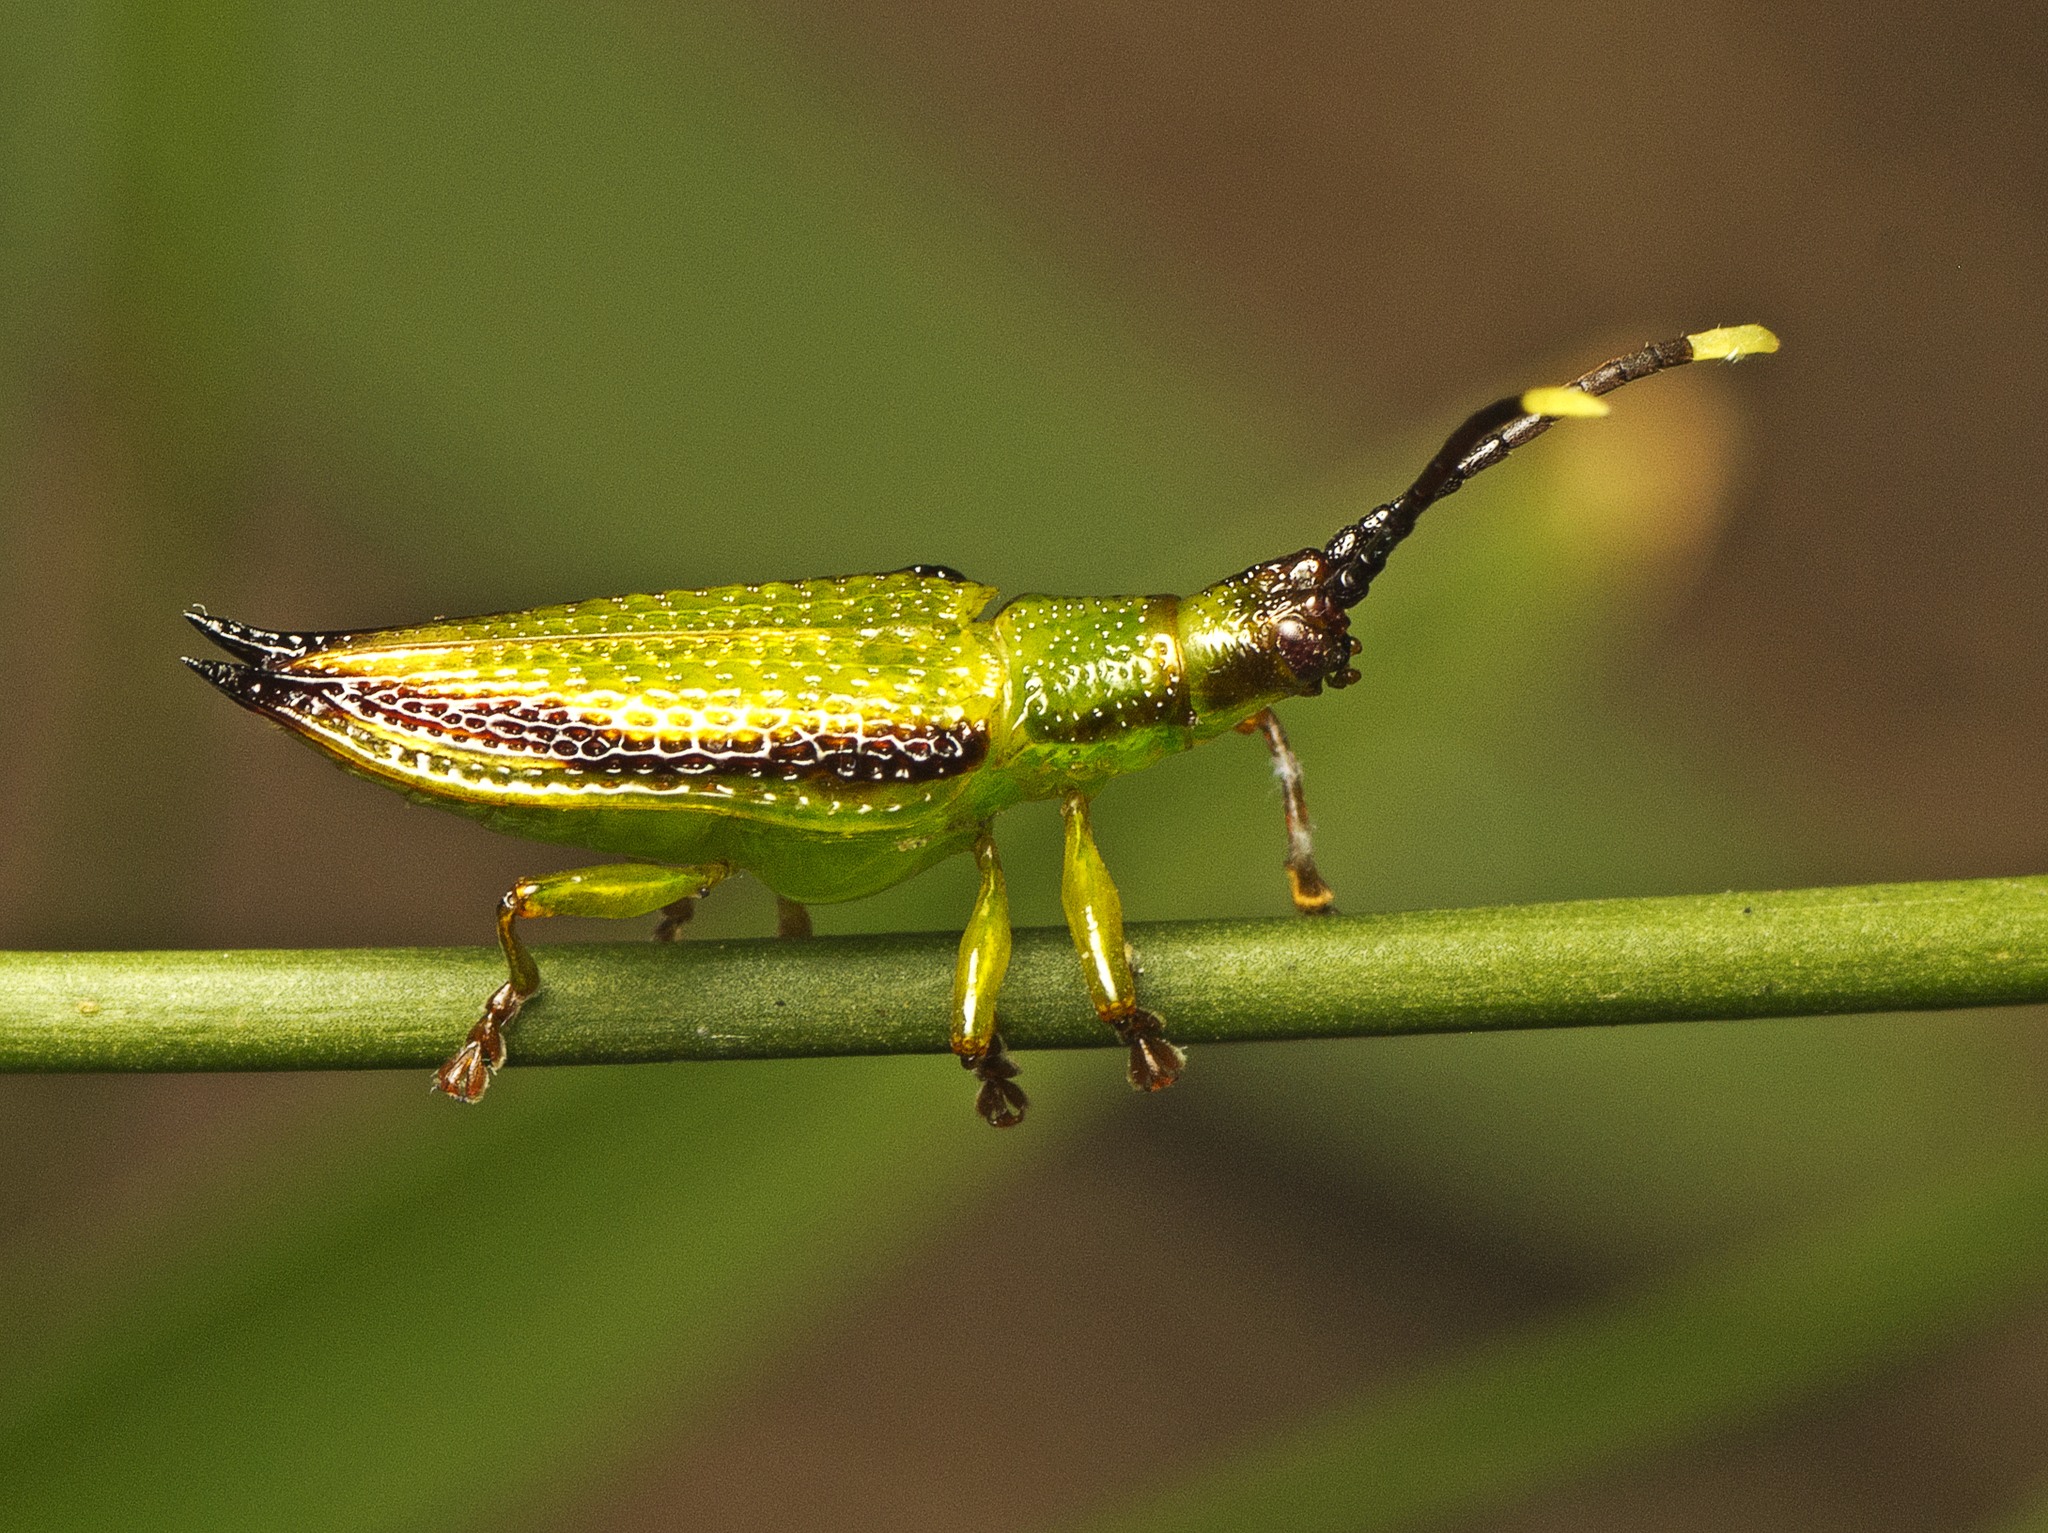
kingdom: Animalia
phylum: Arthropoda
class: Insecta
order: Coleoptera
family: Chrysomelidae
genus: Aproida
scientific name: Aproida balyi
